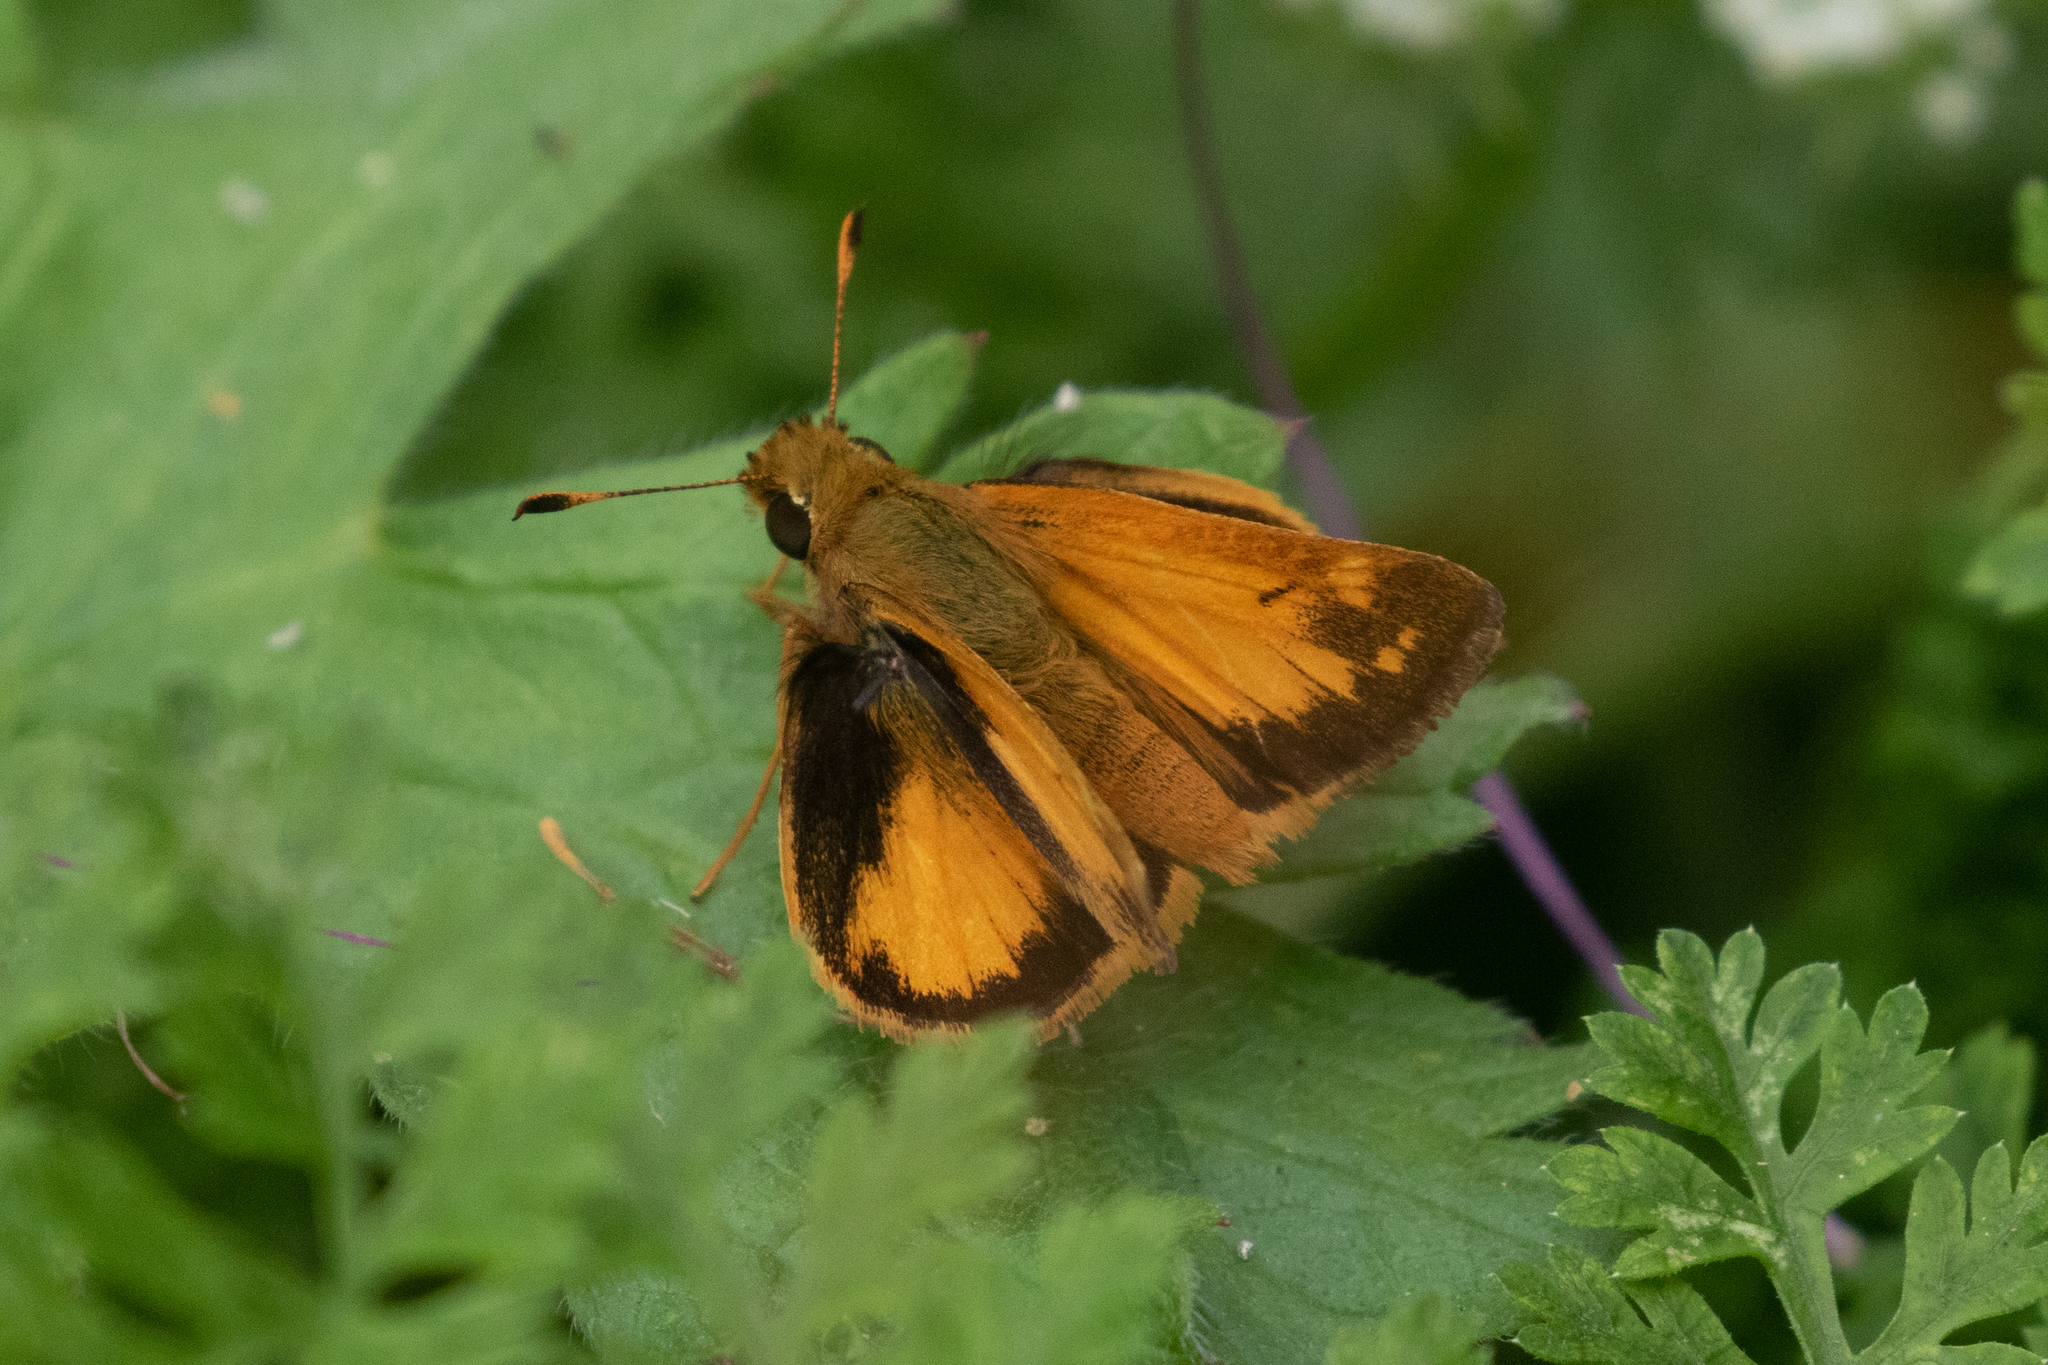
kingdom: Animalia
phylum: Arthropoda
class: Insecta
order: Lepidoptera
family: Hesperiidae
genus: Lon
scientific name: Lon zabulon
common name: Zabulon skipper
